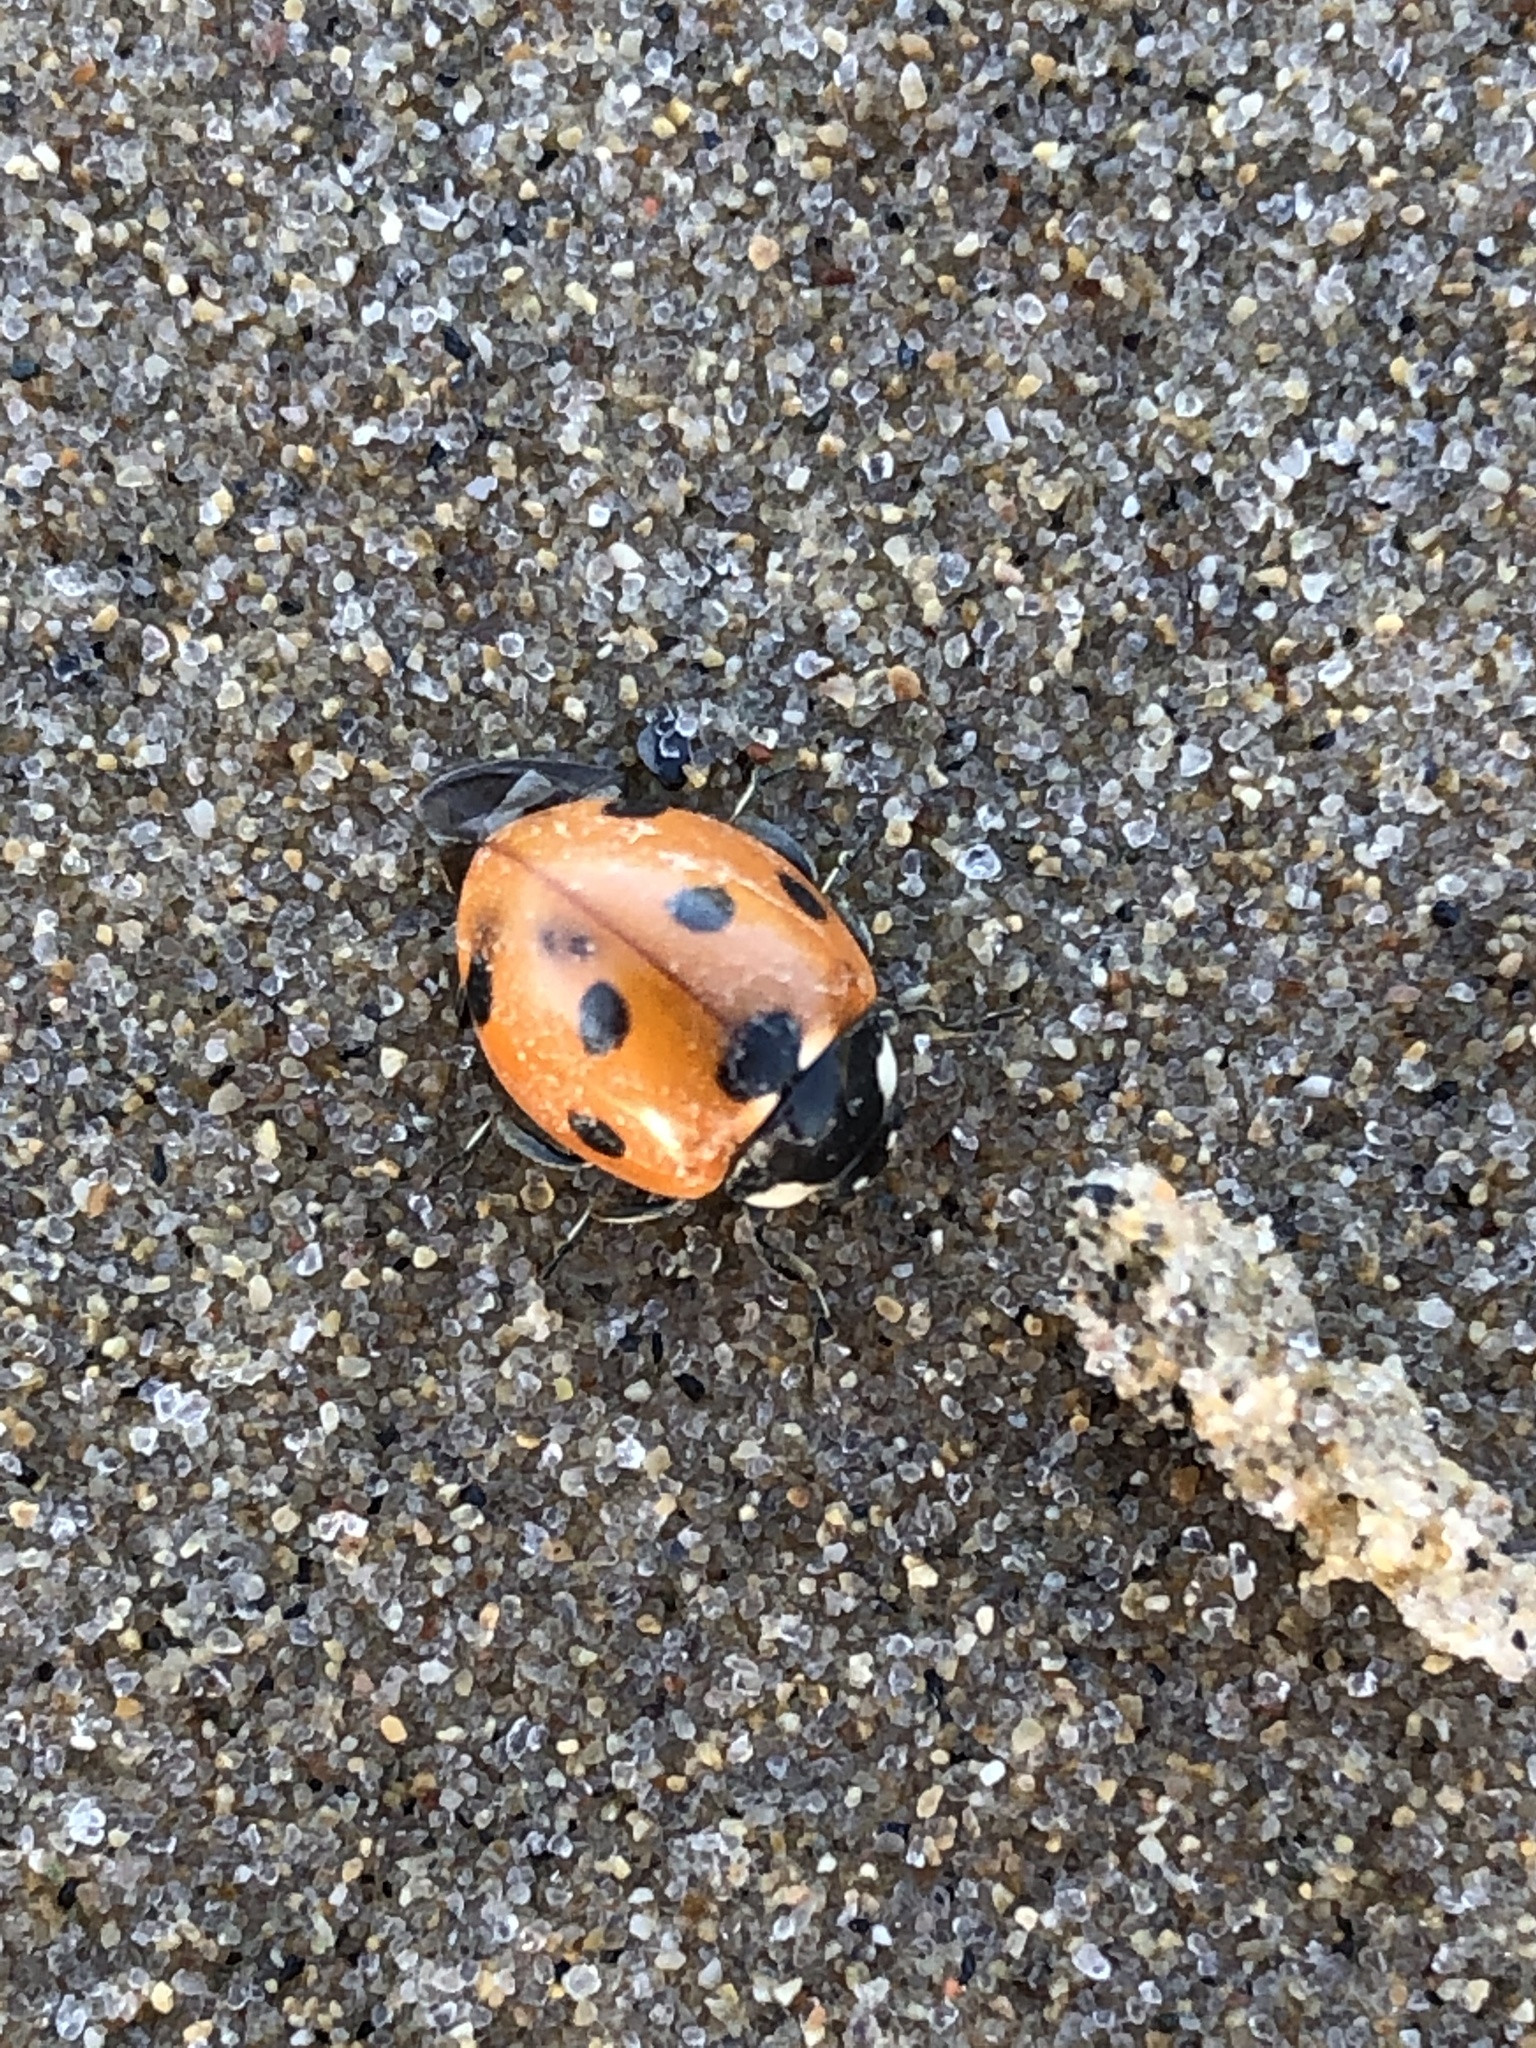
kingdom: Animalia
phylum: Arthropoda
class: Insecta
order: Coleoptera
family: Coccinellidae
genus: Coccinella
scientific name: Coccinella septempunctata
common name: Sevenspotted lady beetle
